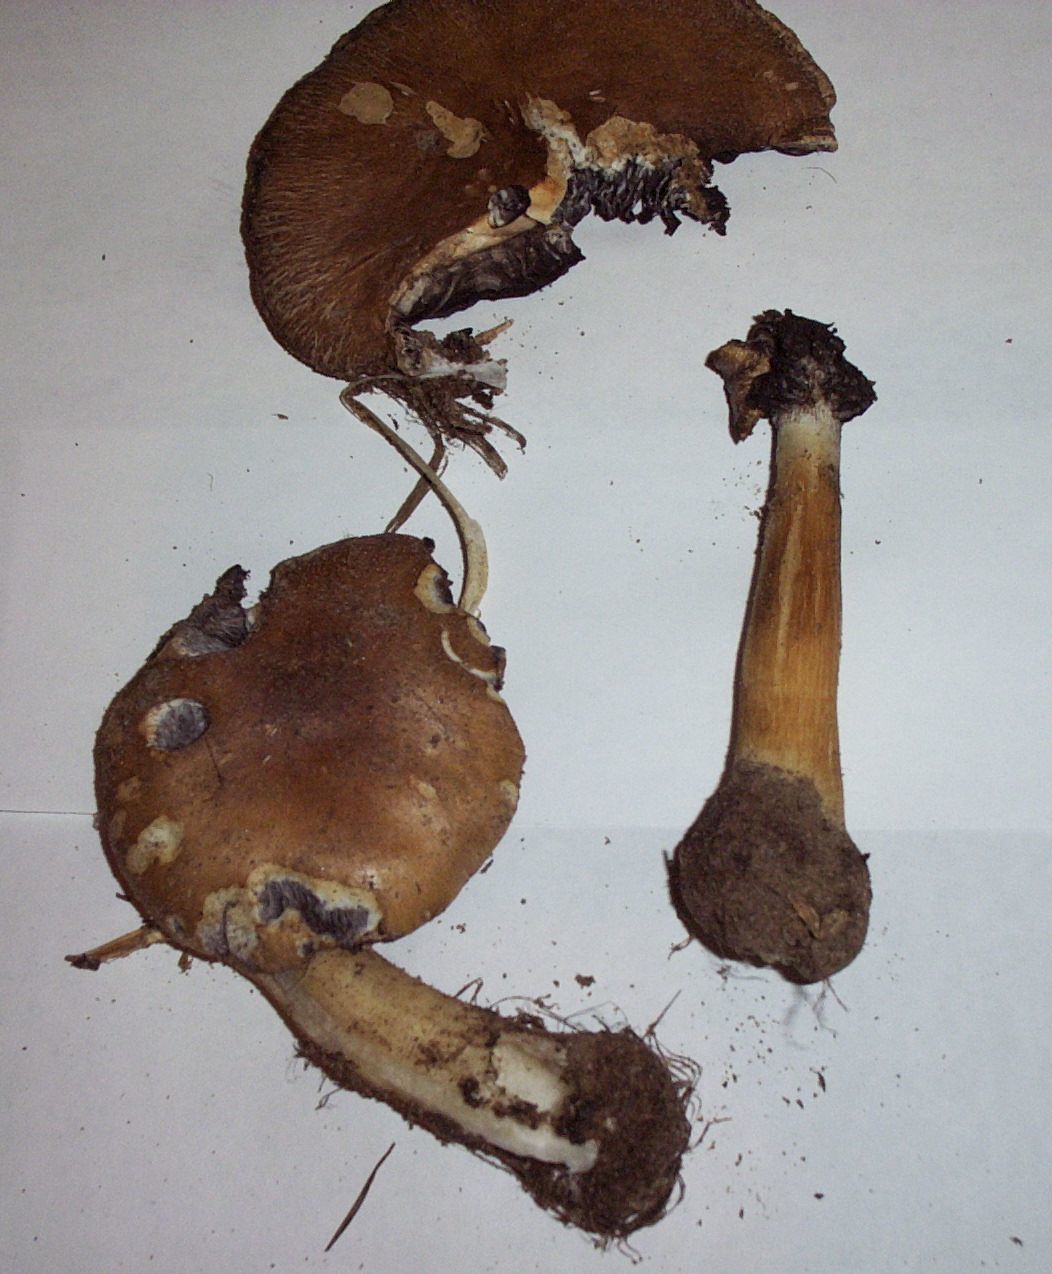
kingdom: Fungi
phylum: Basidiomycota
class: Agaricomycetes
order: Agaricales
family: Strophariaceae
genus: Stropharia
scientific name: Stropharia rugosoannulata
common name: Wine roundhead
